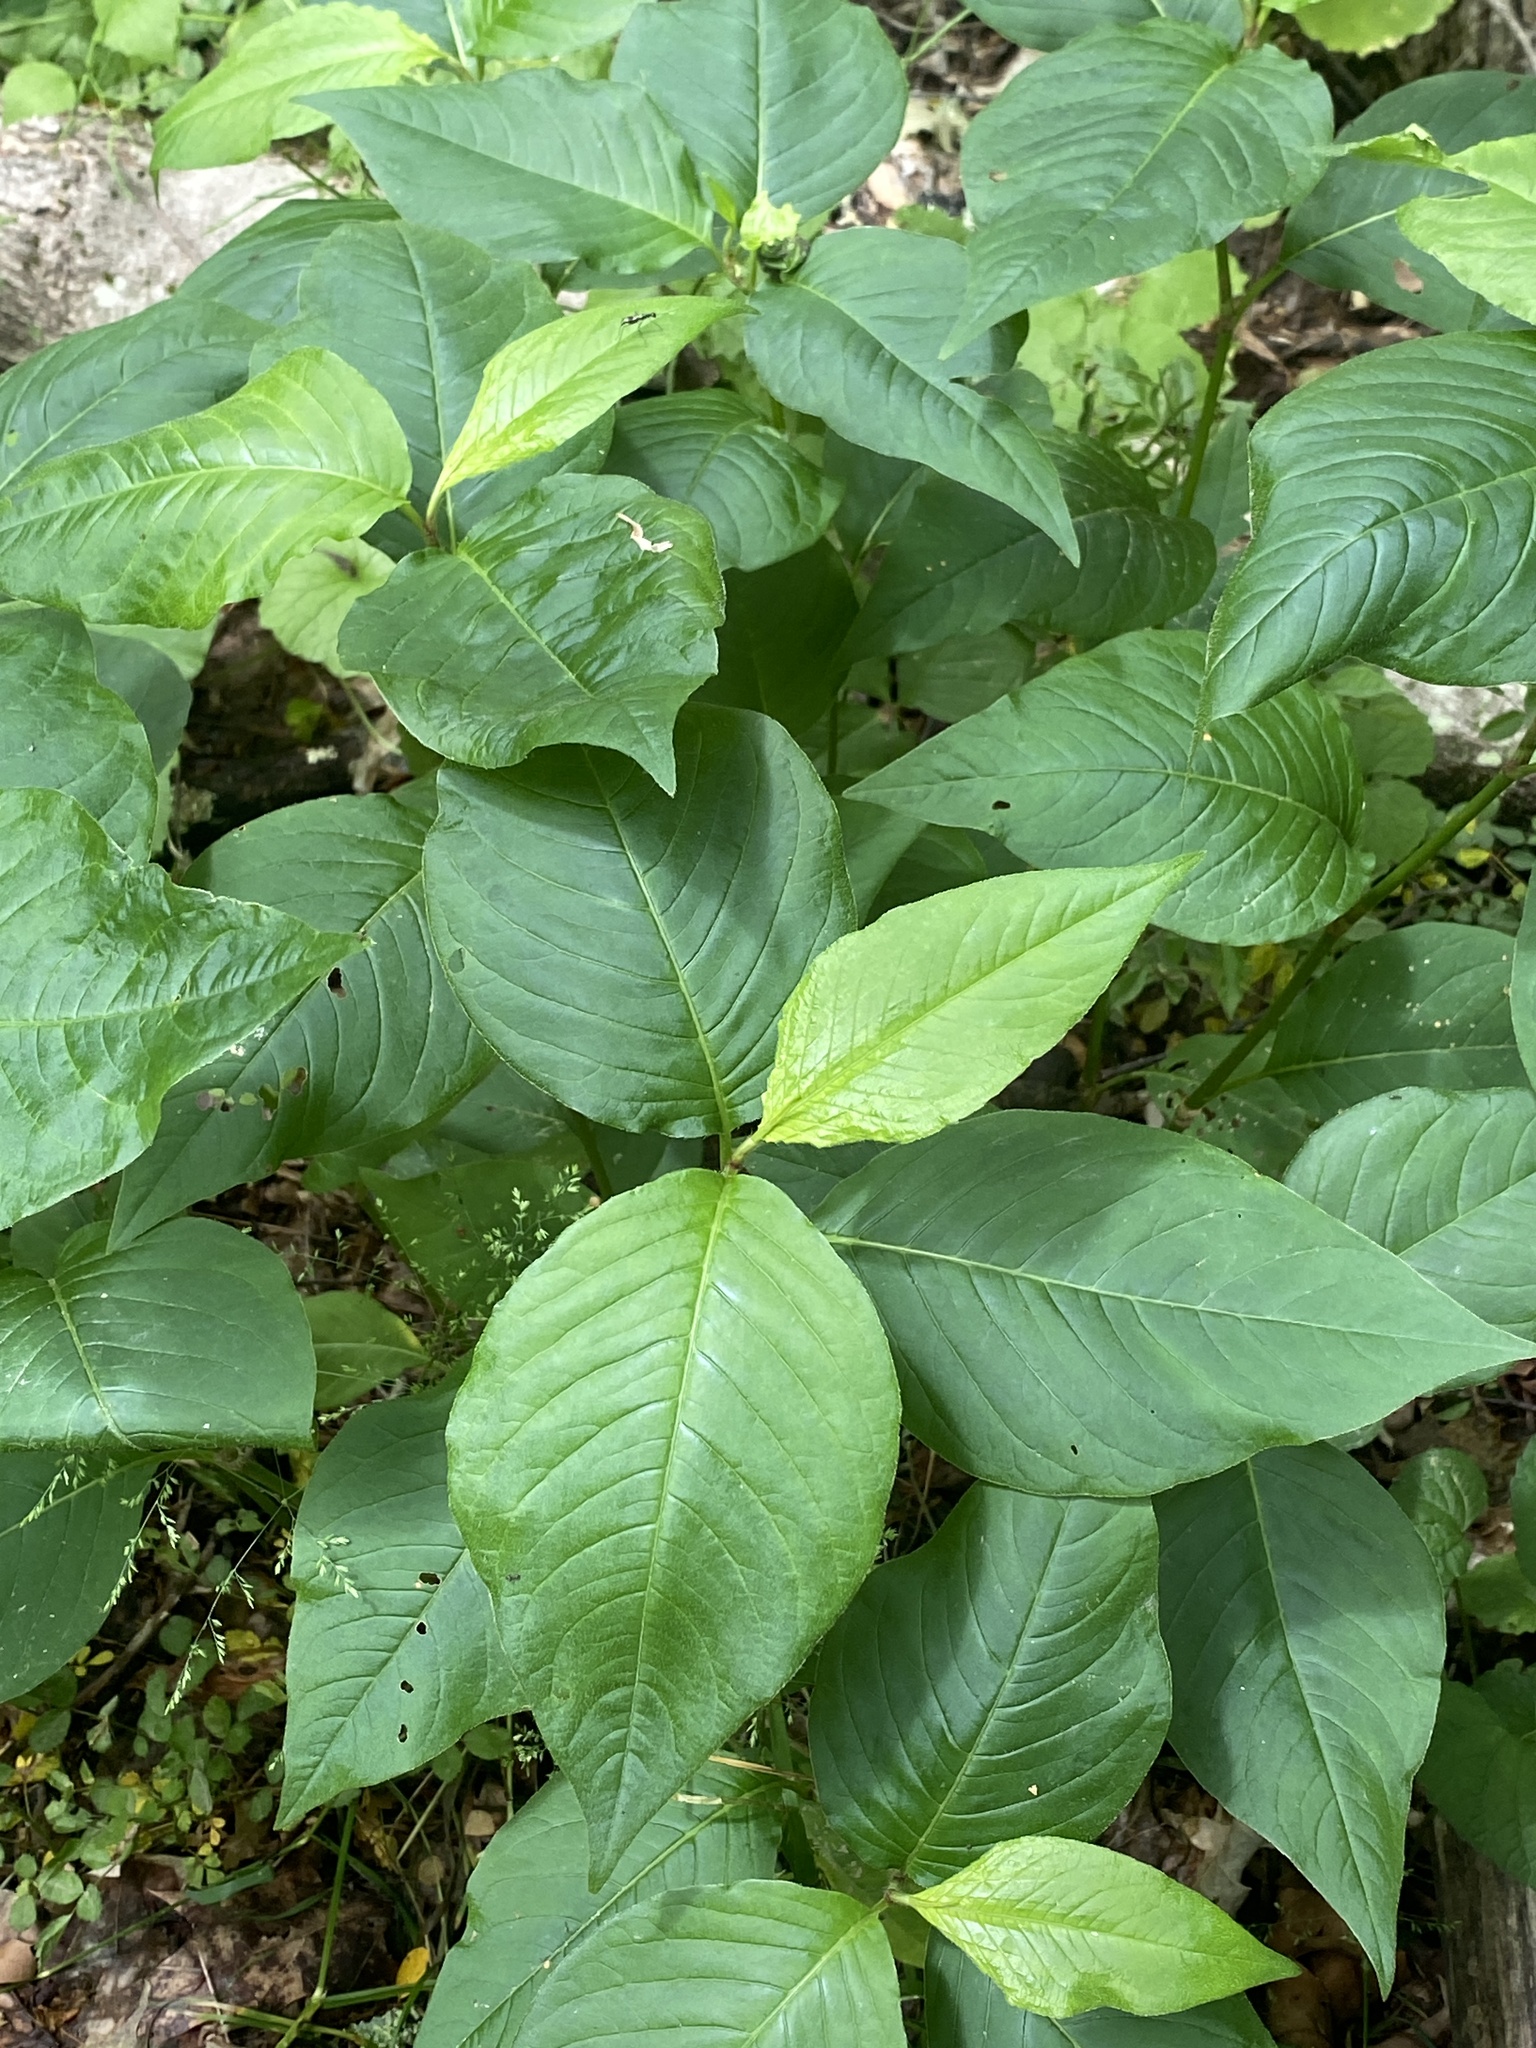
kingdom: Plantae
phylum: Tracheophyta
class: Magnoliopsida
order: Caryophyllales
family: Polygonaceae
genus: Persicaria
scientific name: Persicaria virginiana
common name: Jumpseed
